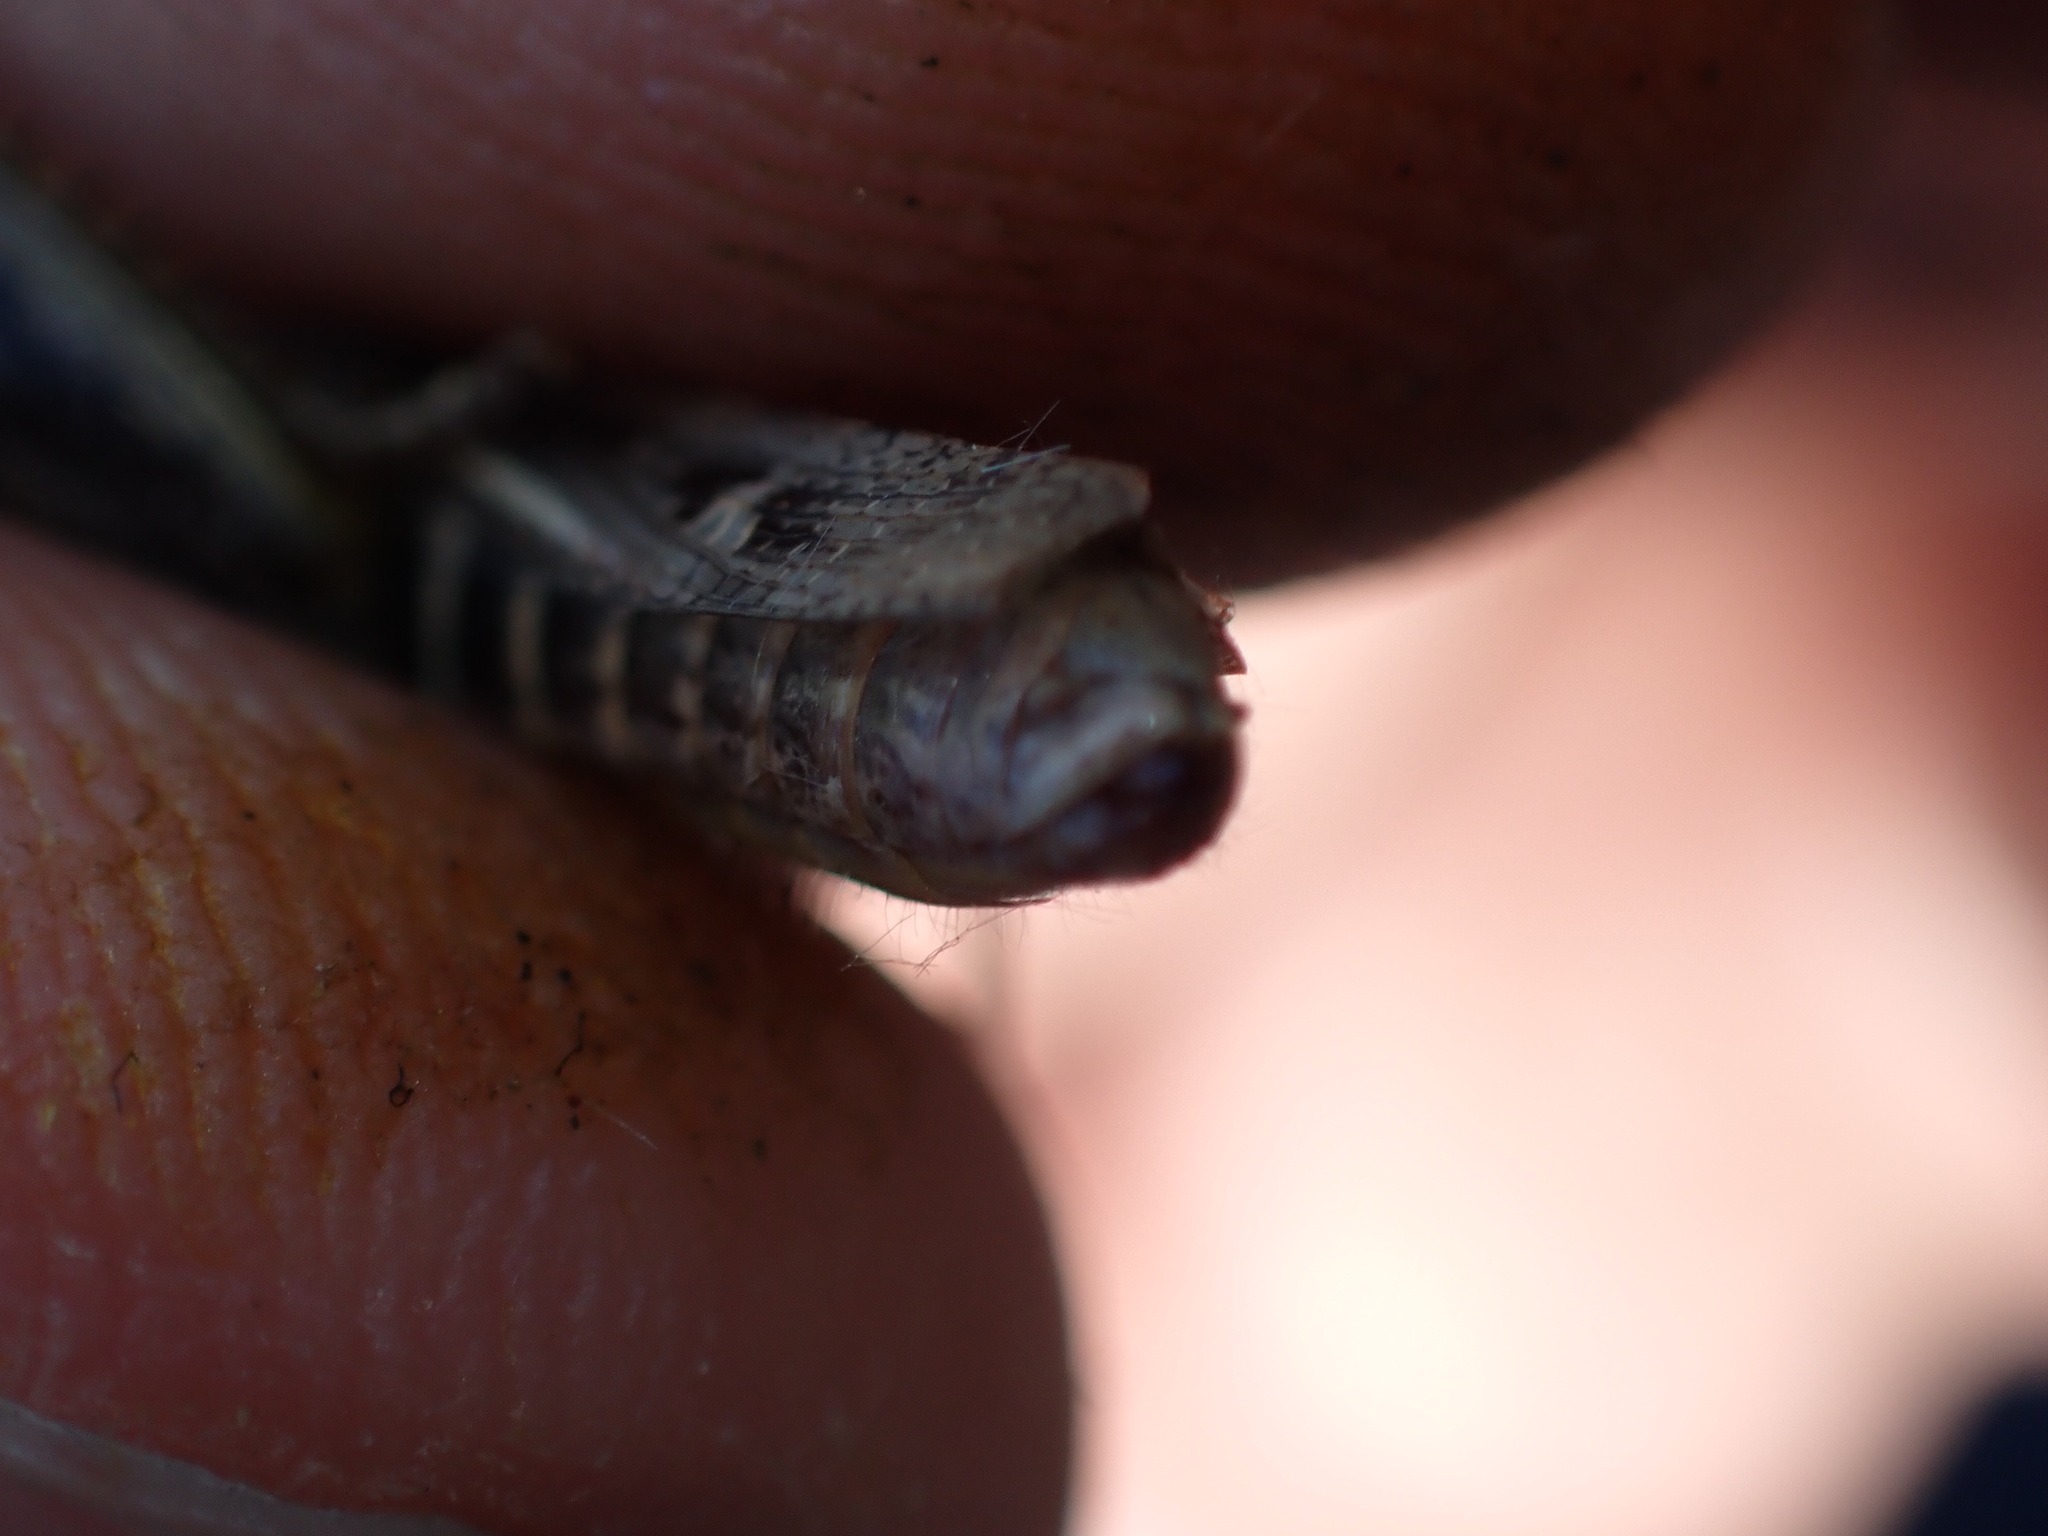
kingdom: Animalia
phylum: Arthropoda
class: Insecta
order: Orthoptera
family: Acrididae
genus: Glyptobothrus
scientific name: Glyptobothrus
